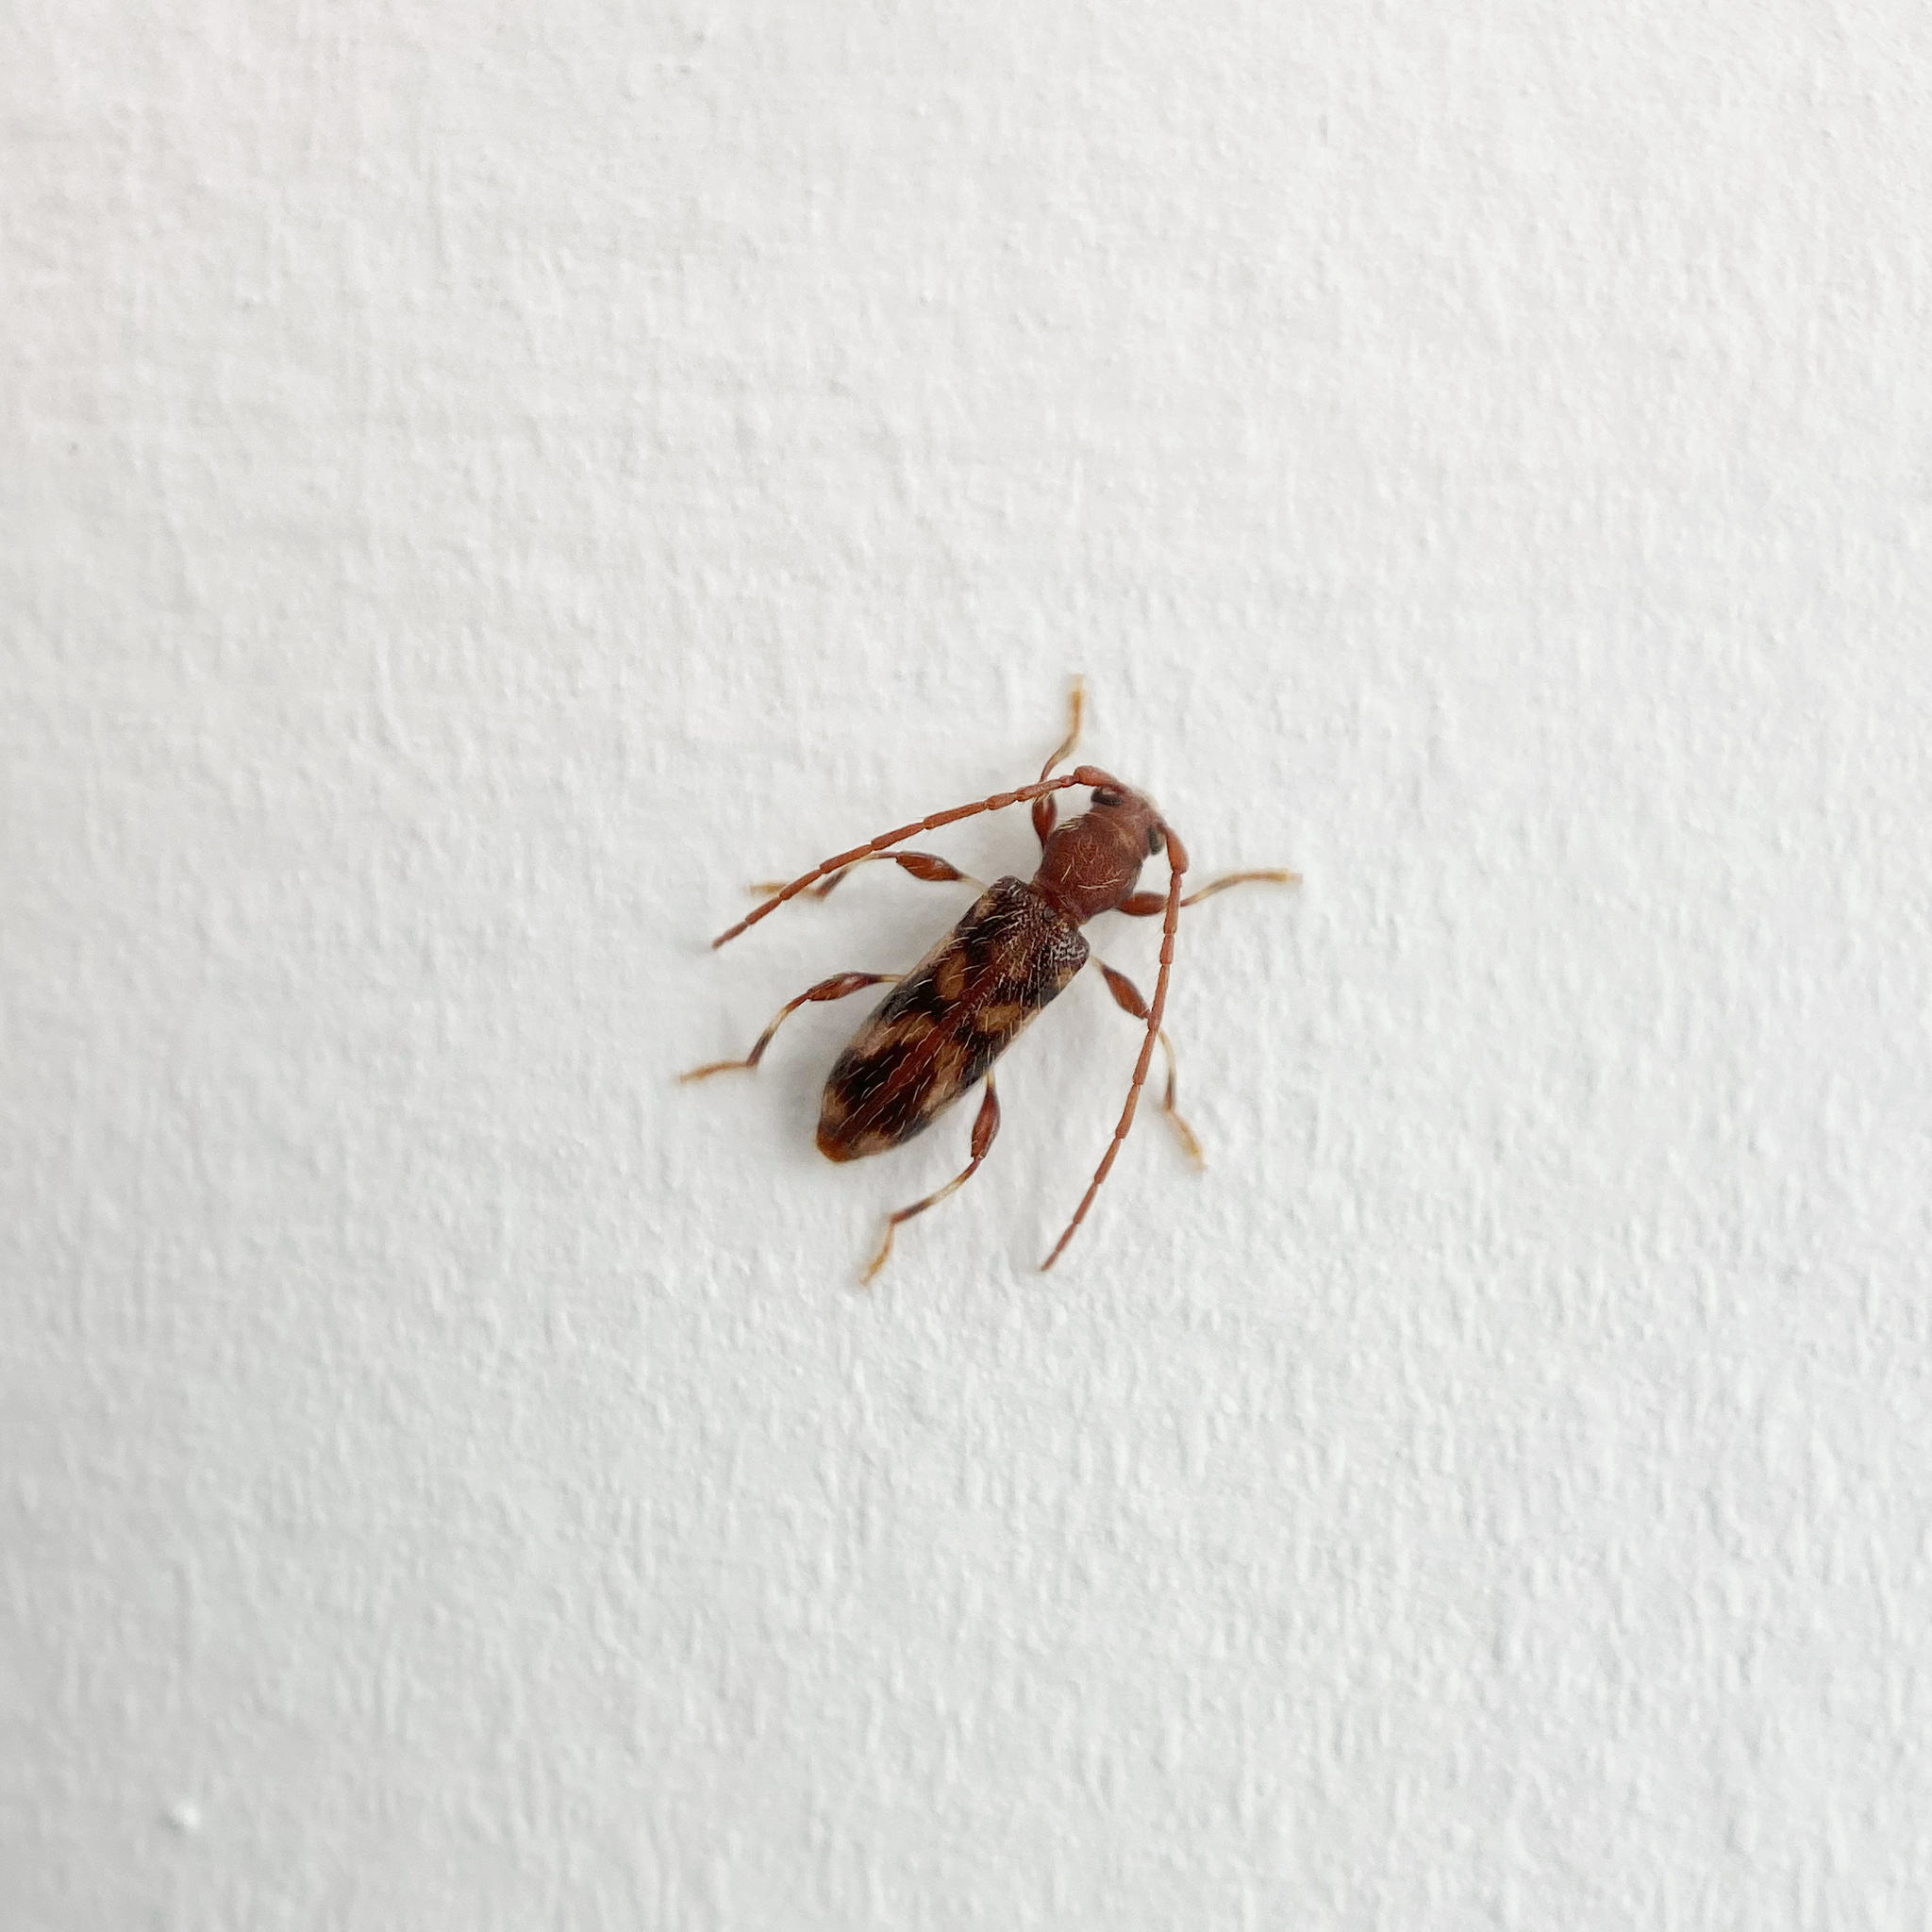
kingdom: Animalia
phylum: Arthropoda
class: Insecta
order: Coleoptera
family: Cerambycidae
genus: Bethelium
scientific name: Bethelium signiferum
